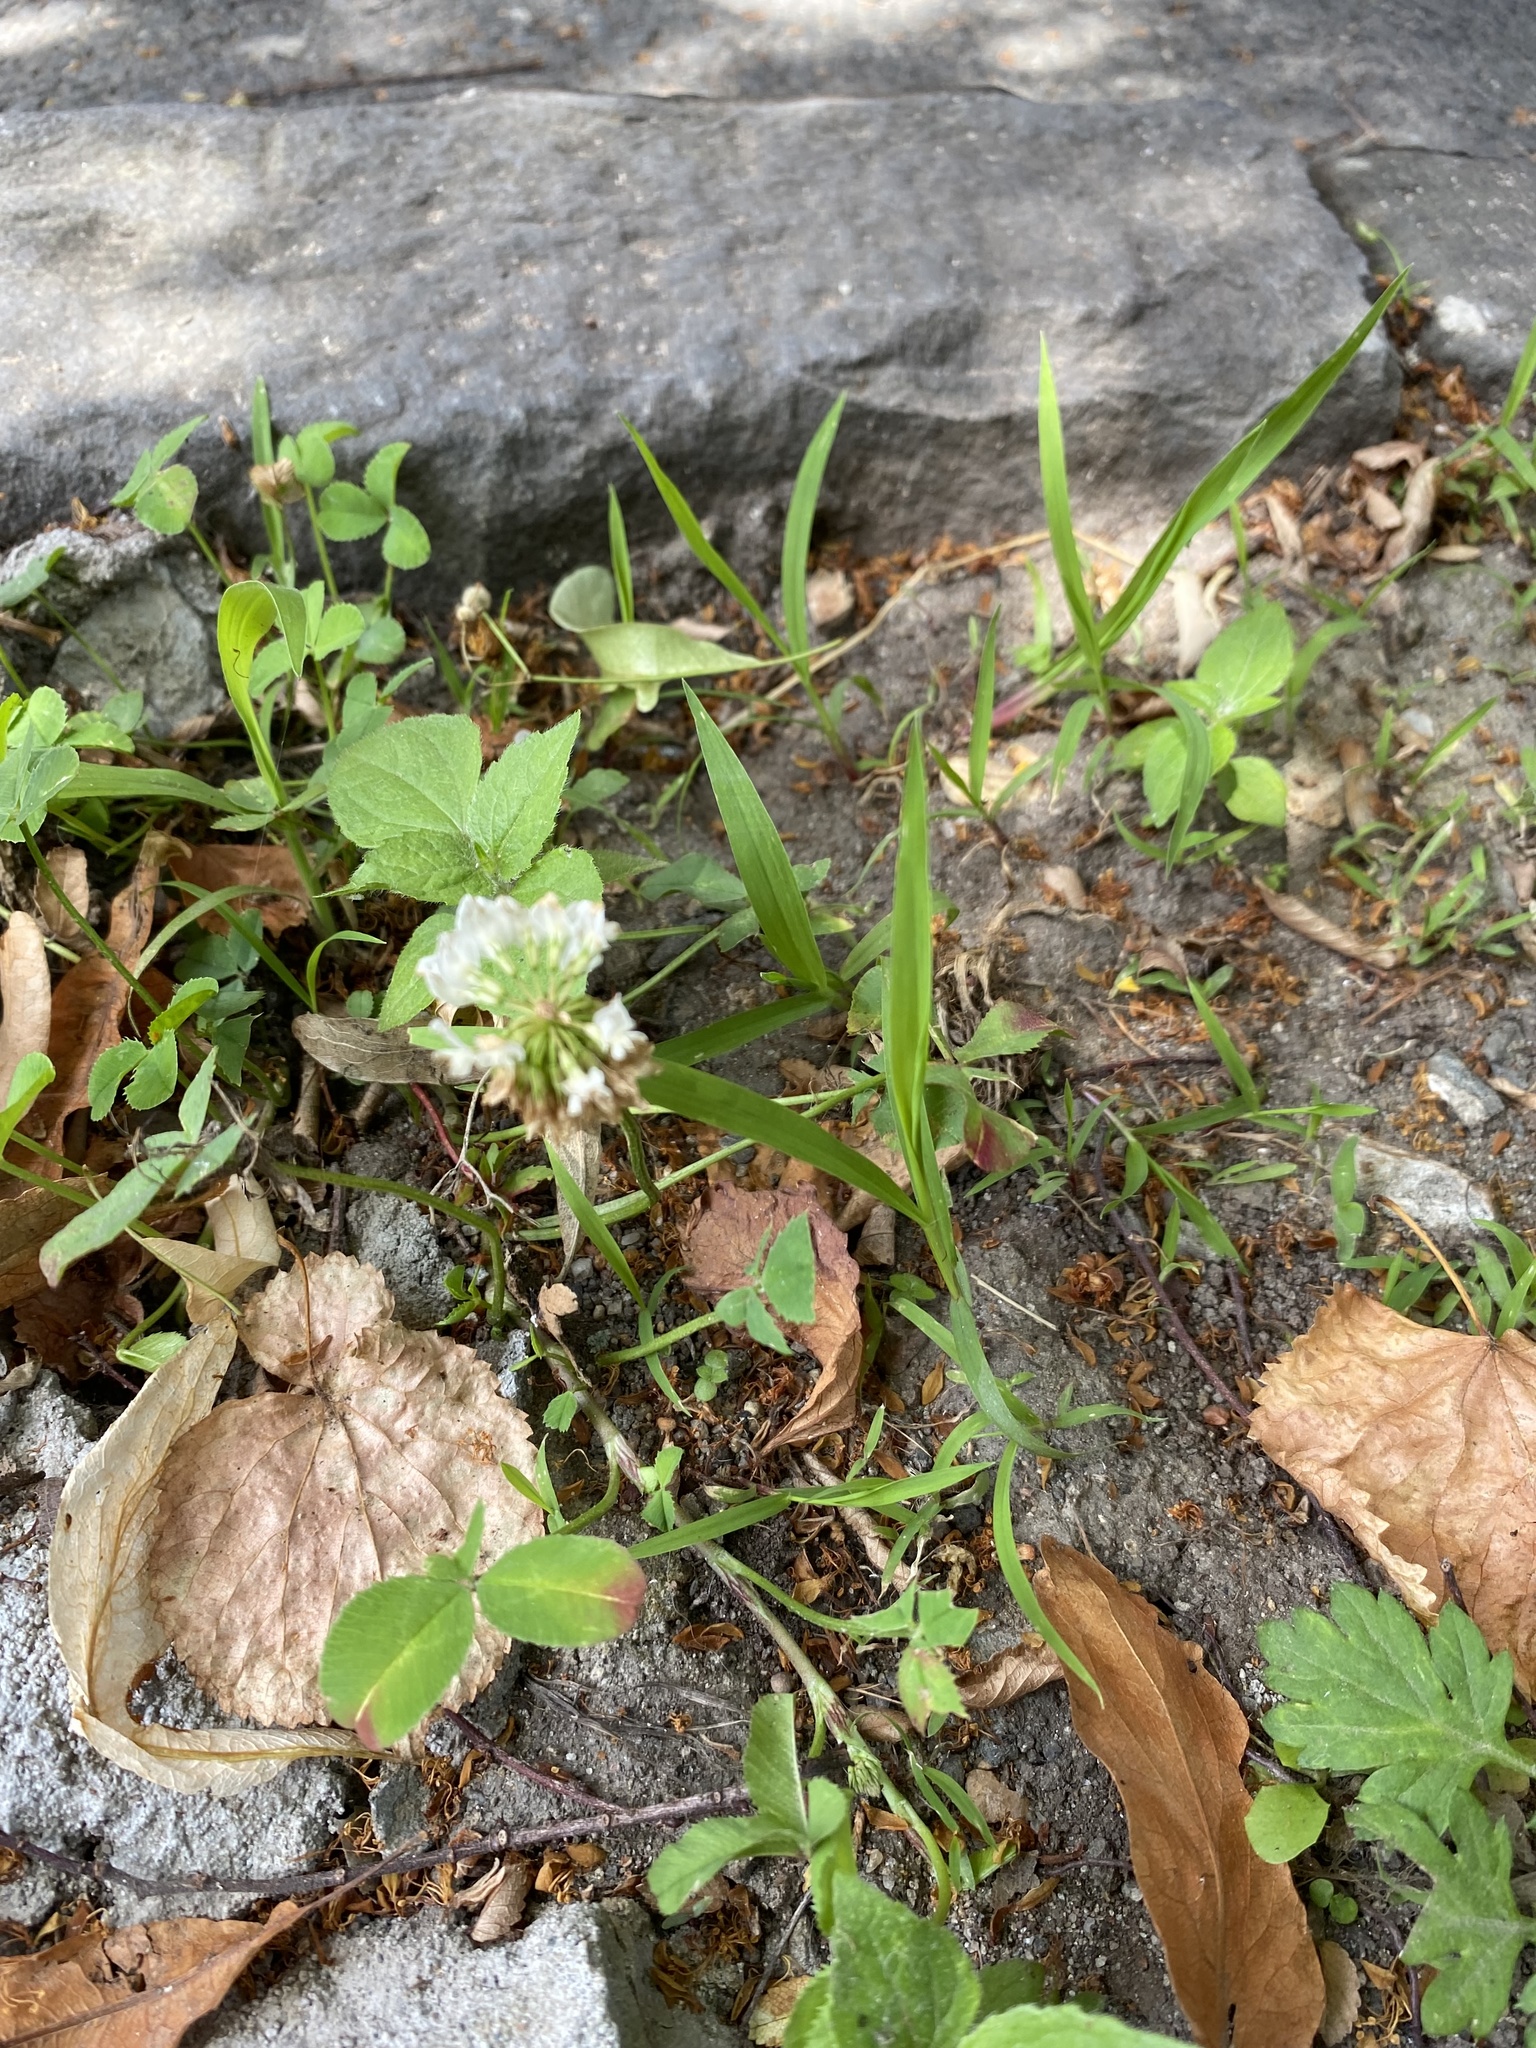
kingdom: Plantae
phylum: Tracheophyta
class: Magnoliopsida
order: Fabales
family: Fabaceae
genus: Trifolium
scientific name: Trifolium repens
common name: White clover
